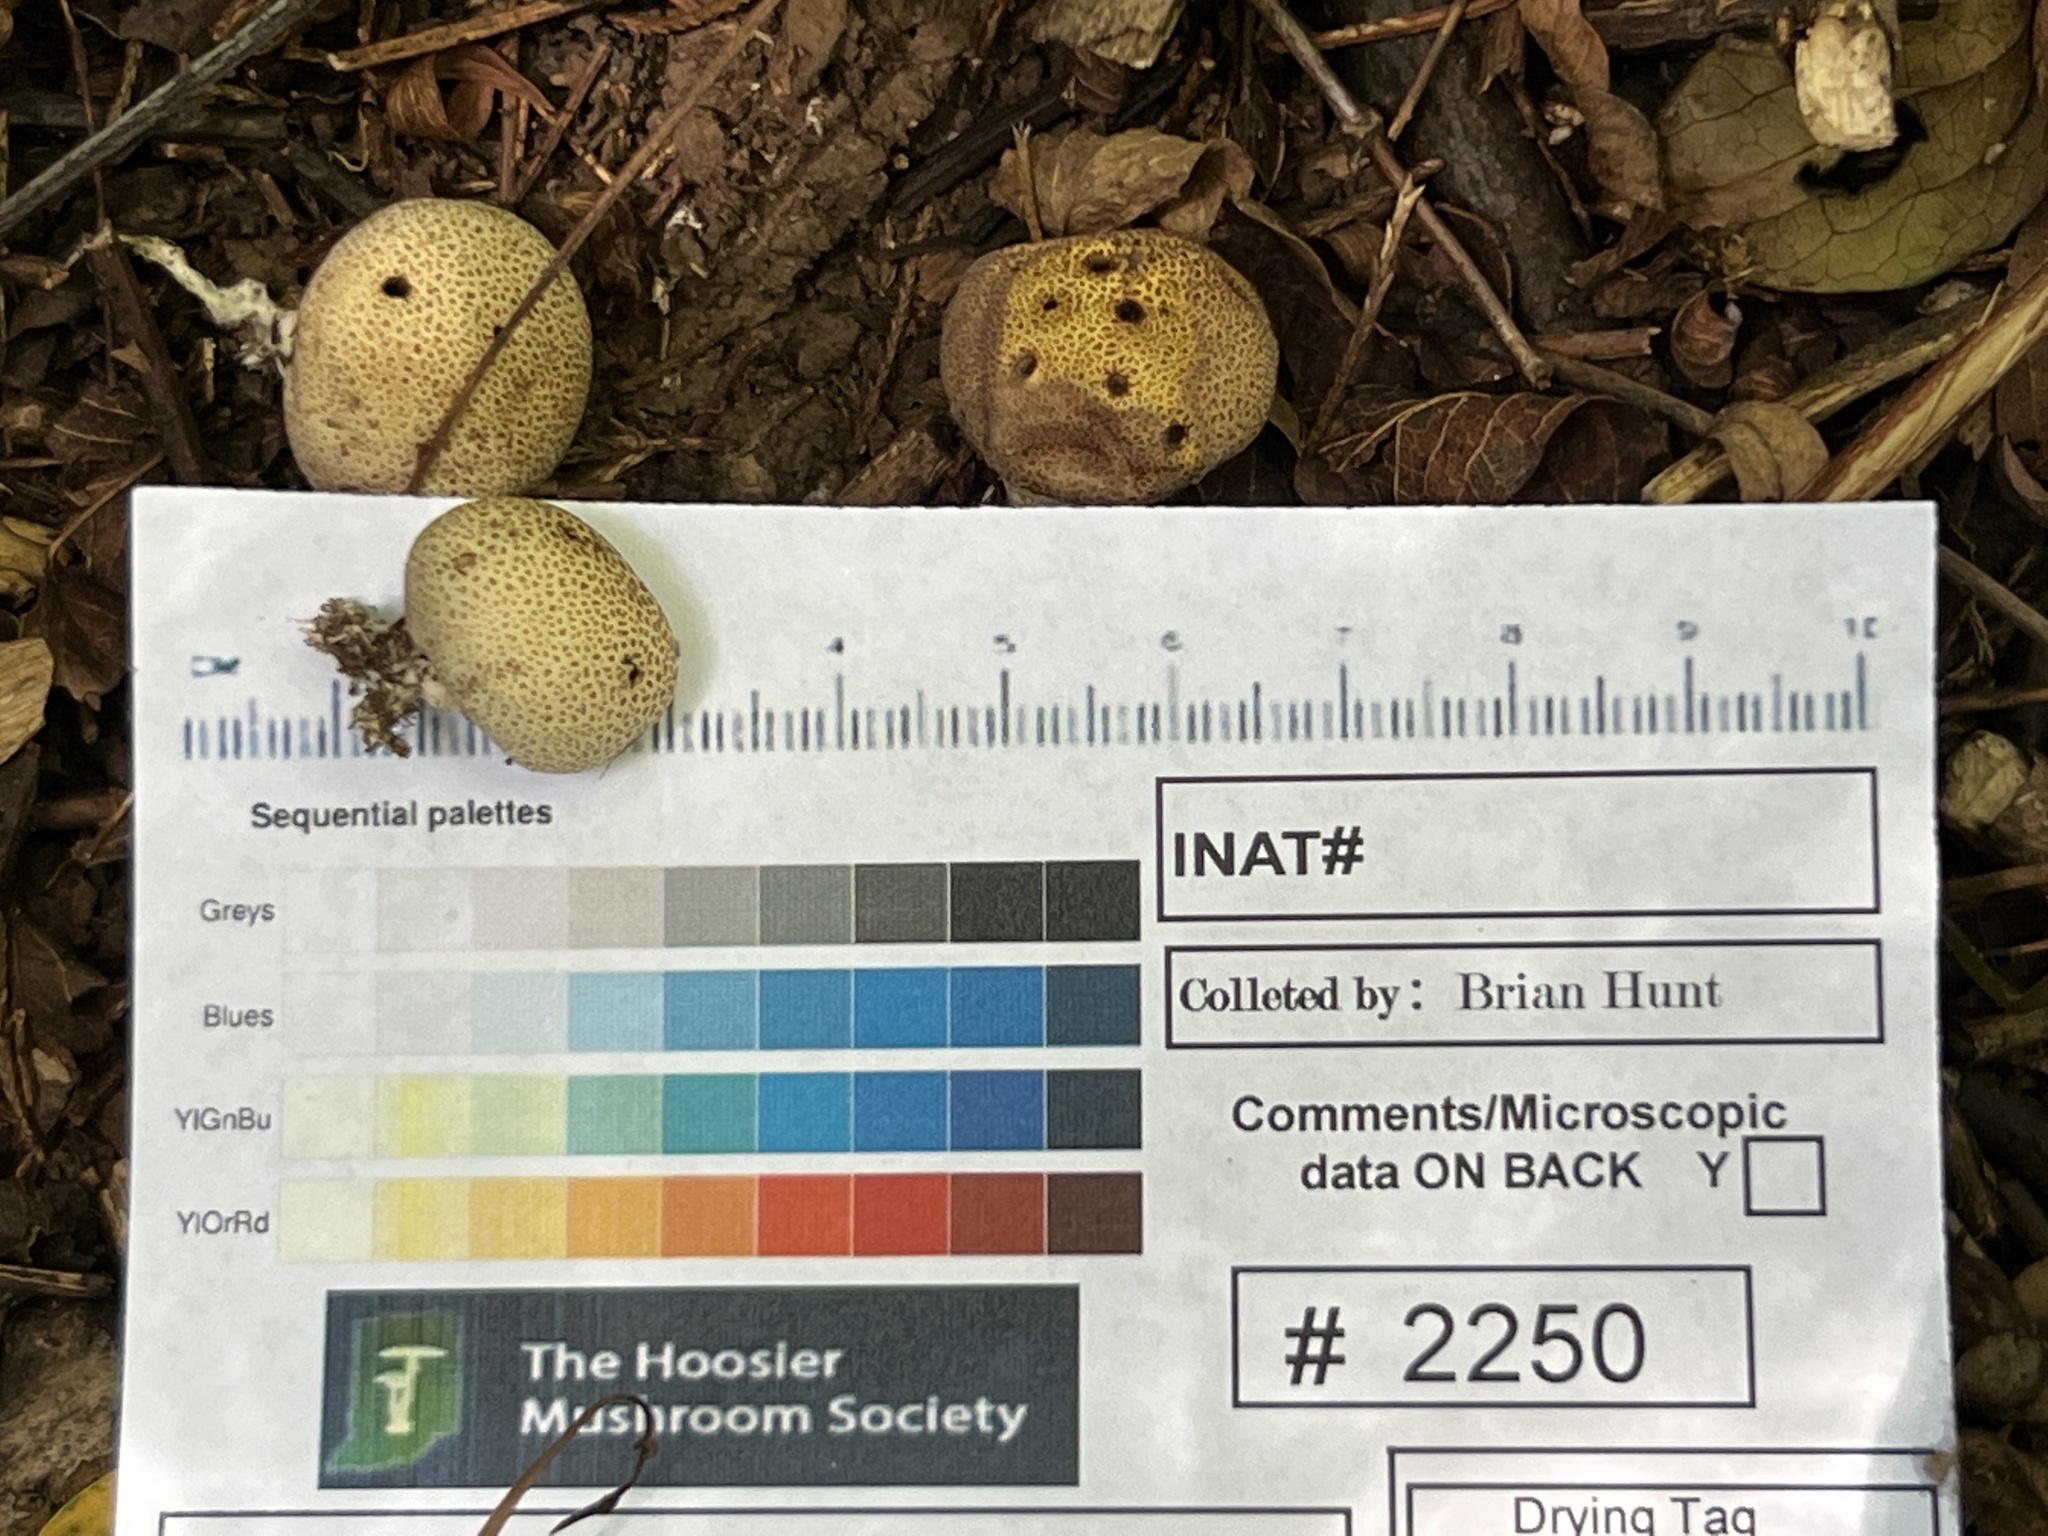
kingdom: Fungi
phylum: Basidiomycota
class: Agaricomycetes
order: Boletales
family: Sclerodermataceae
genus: Scleroderma
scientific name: Scleroderma areolatum
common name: Leopard earthball
